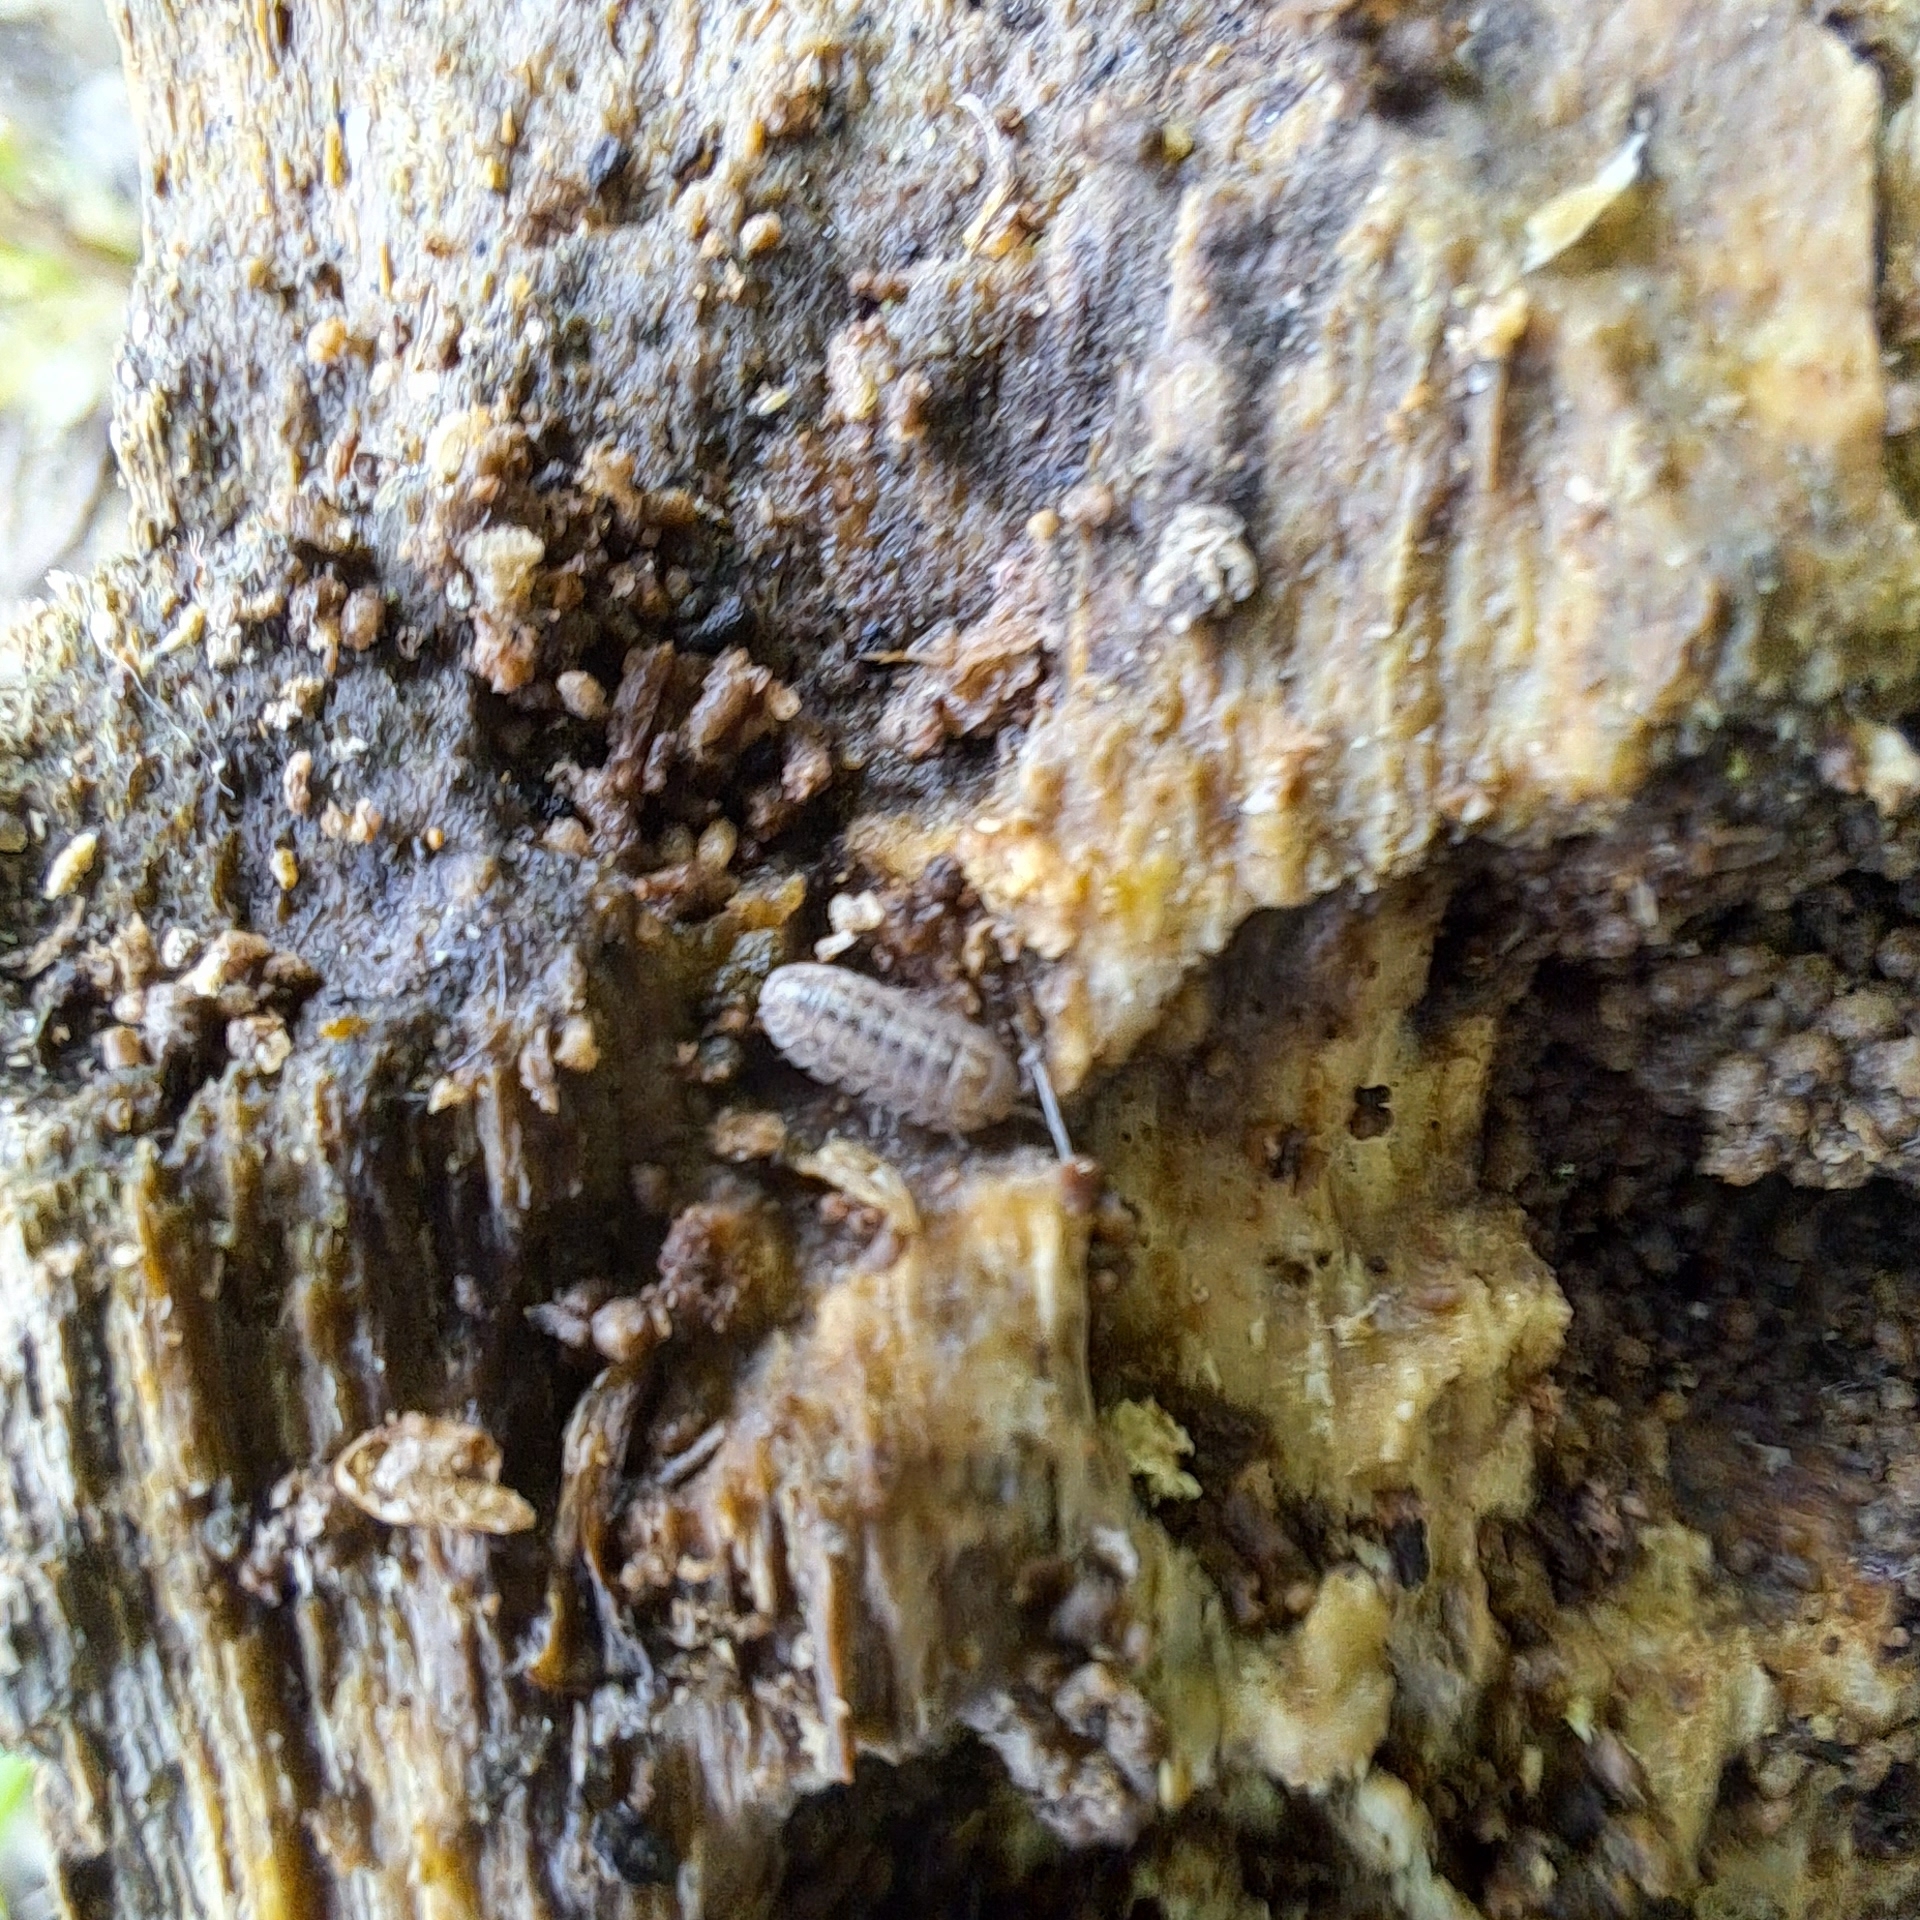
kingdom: Animalia
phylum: Arthropoda
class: Malacostraca
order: Isopoda
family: Armadillidiidae
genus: Armadillidium
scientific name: Armadillidium nasatum
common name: Isopod
